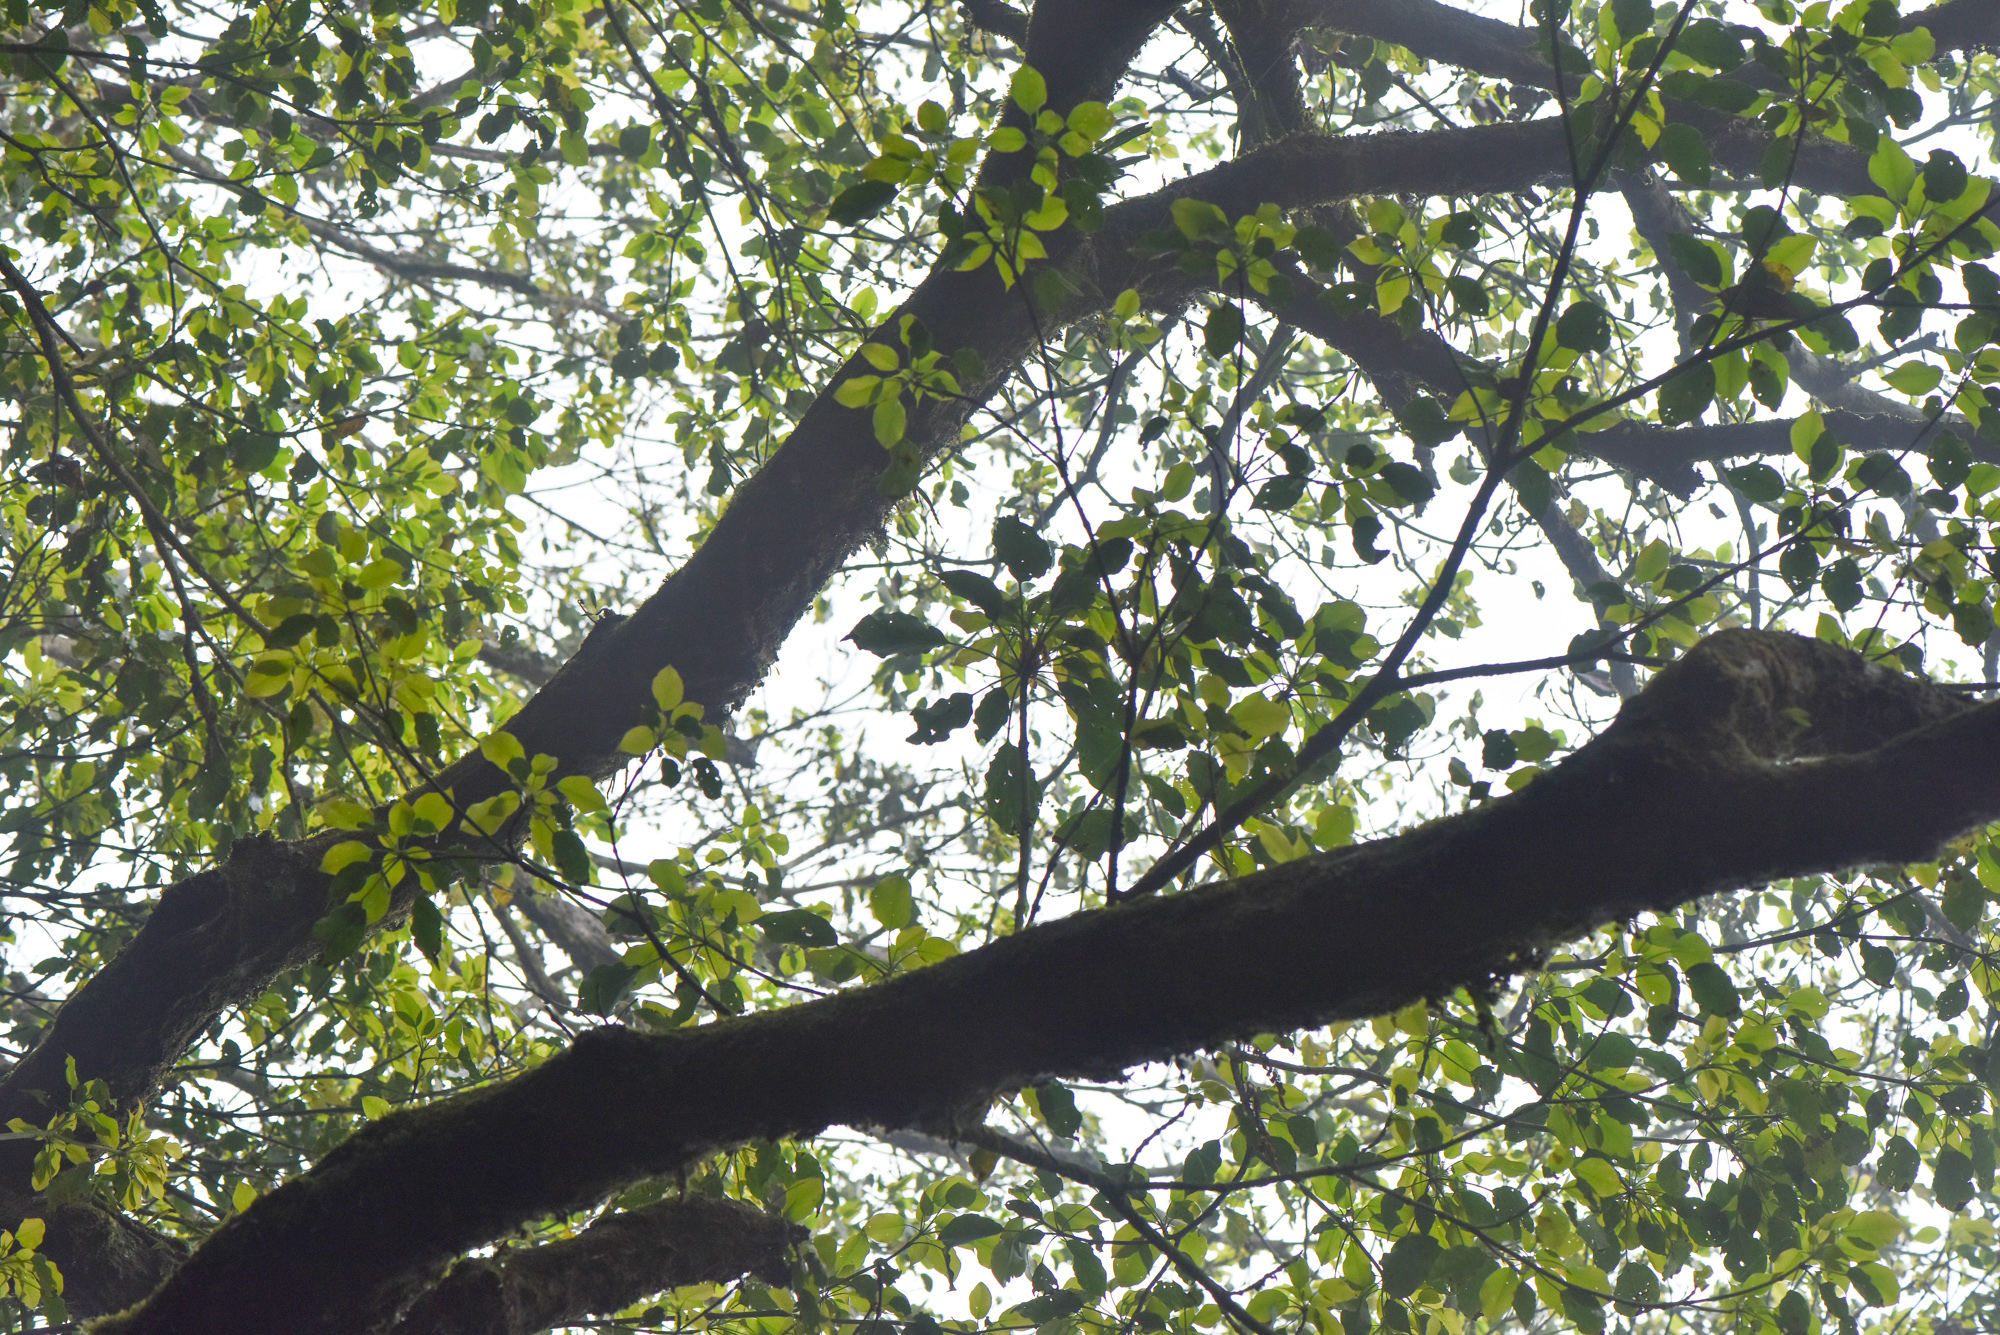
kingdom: Plantae
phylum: Tracheophyta
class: Magnoliopsida
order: Trochodendrales
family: Trochodendraceae
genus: Trochodendron
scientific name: Trochodendron aralioides
